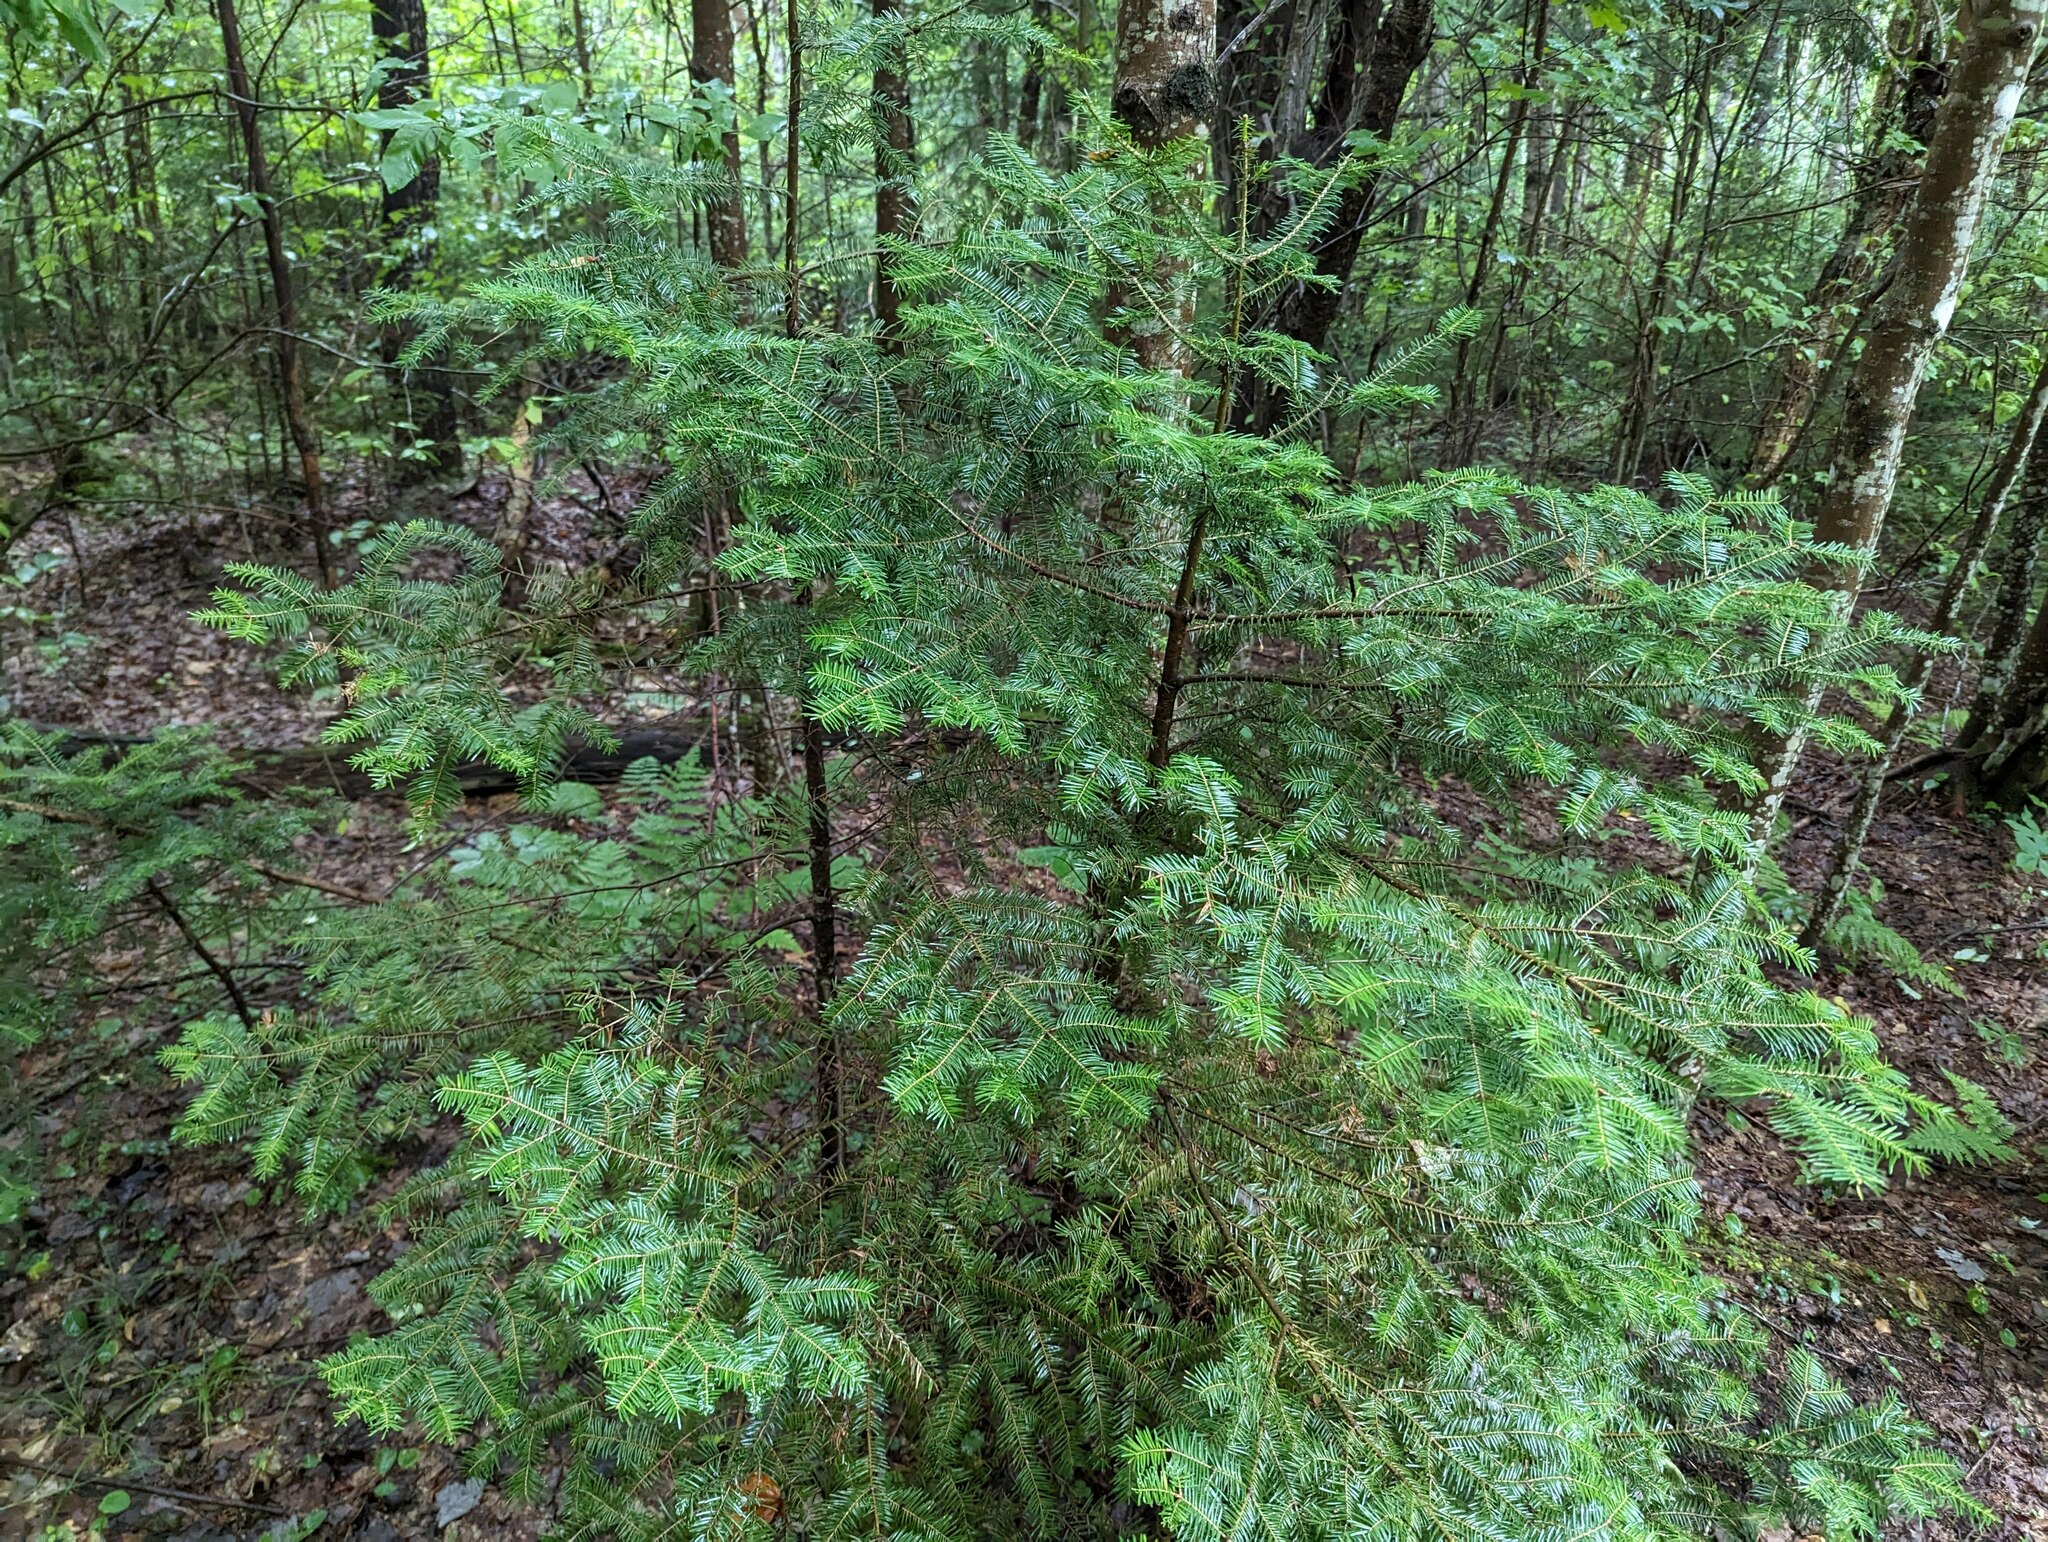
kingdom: Plantae
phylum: Tracheophyta
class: Pinopsida
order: Pinales
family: Pinaceae
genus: Abies
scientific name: Abies balsamea
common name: Balsam fir
